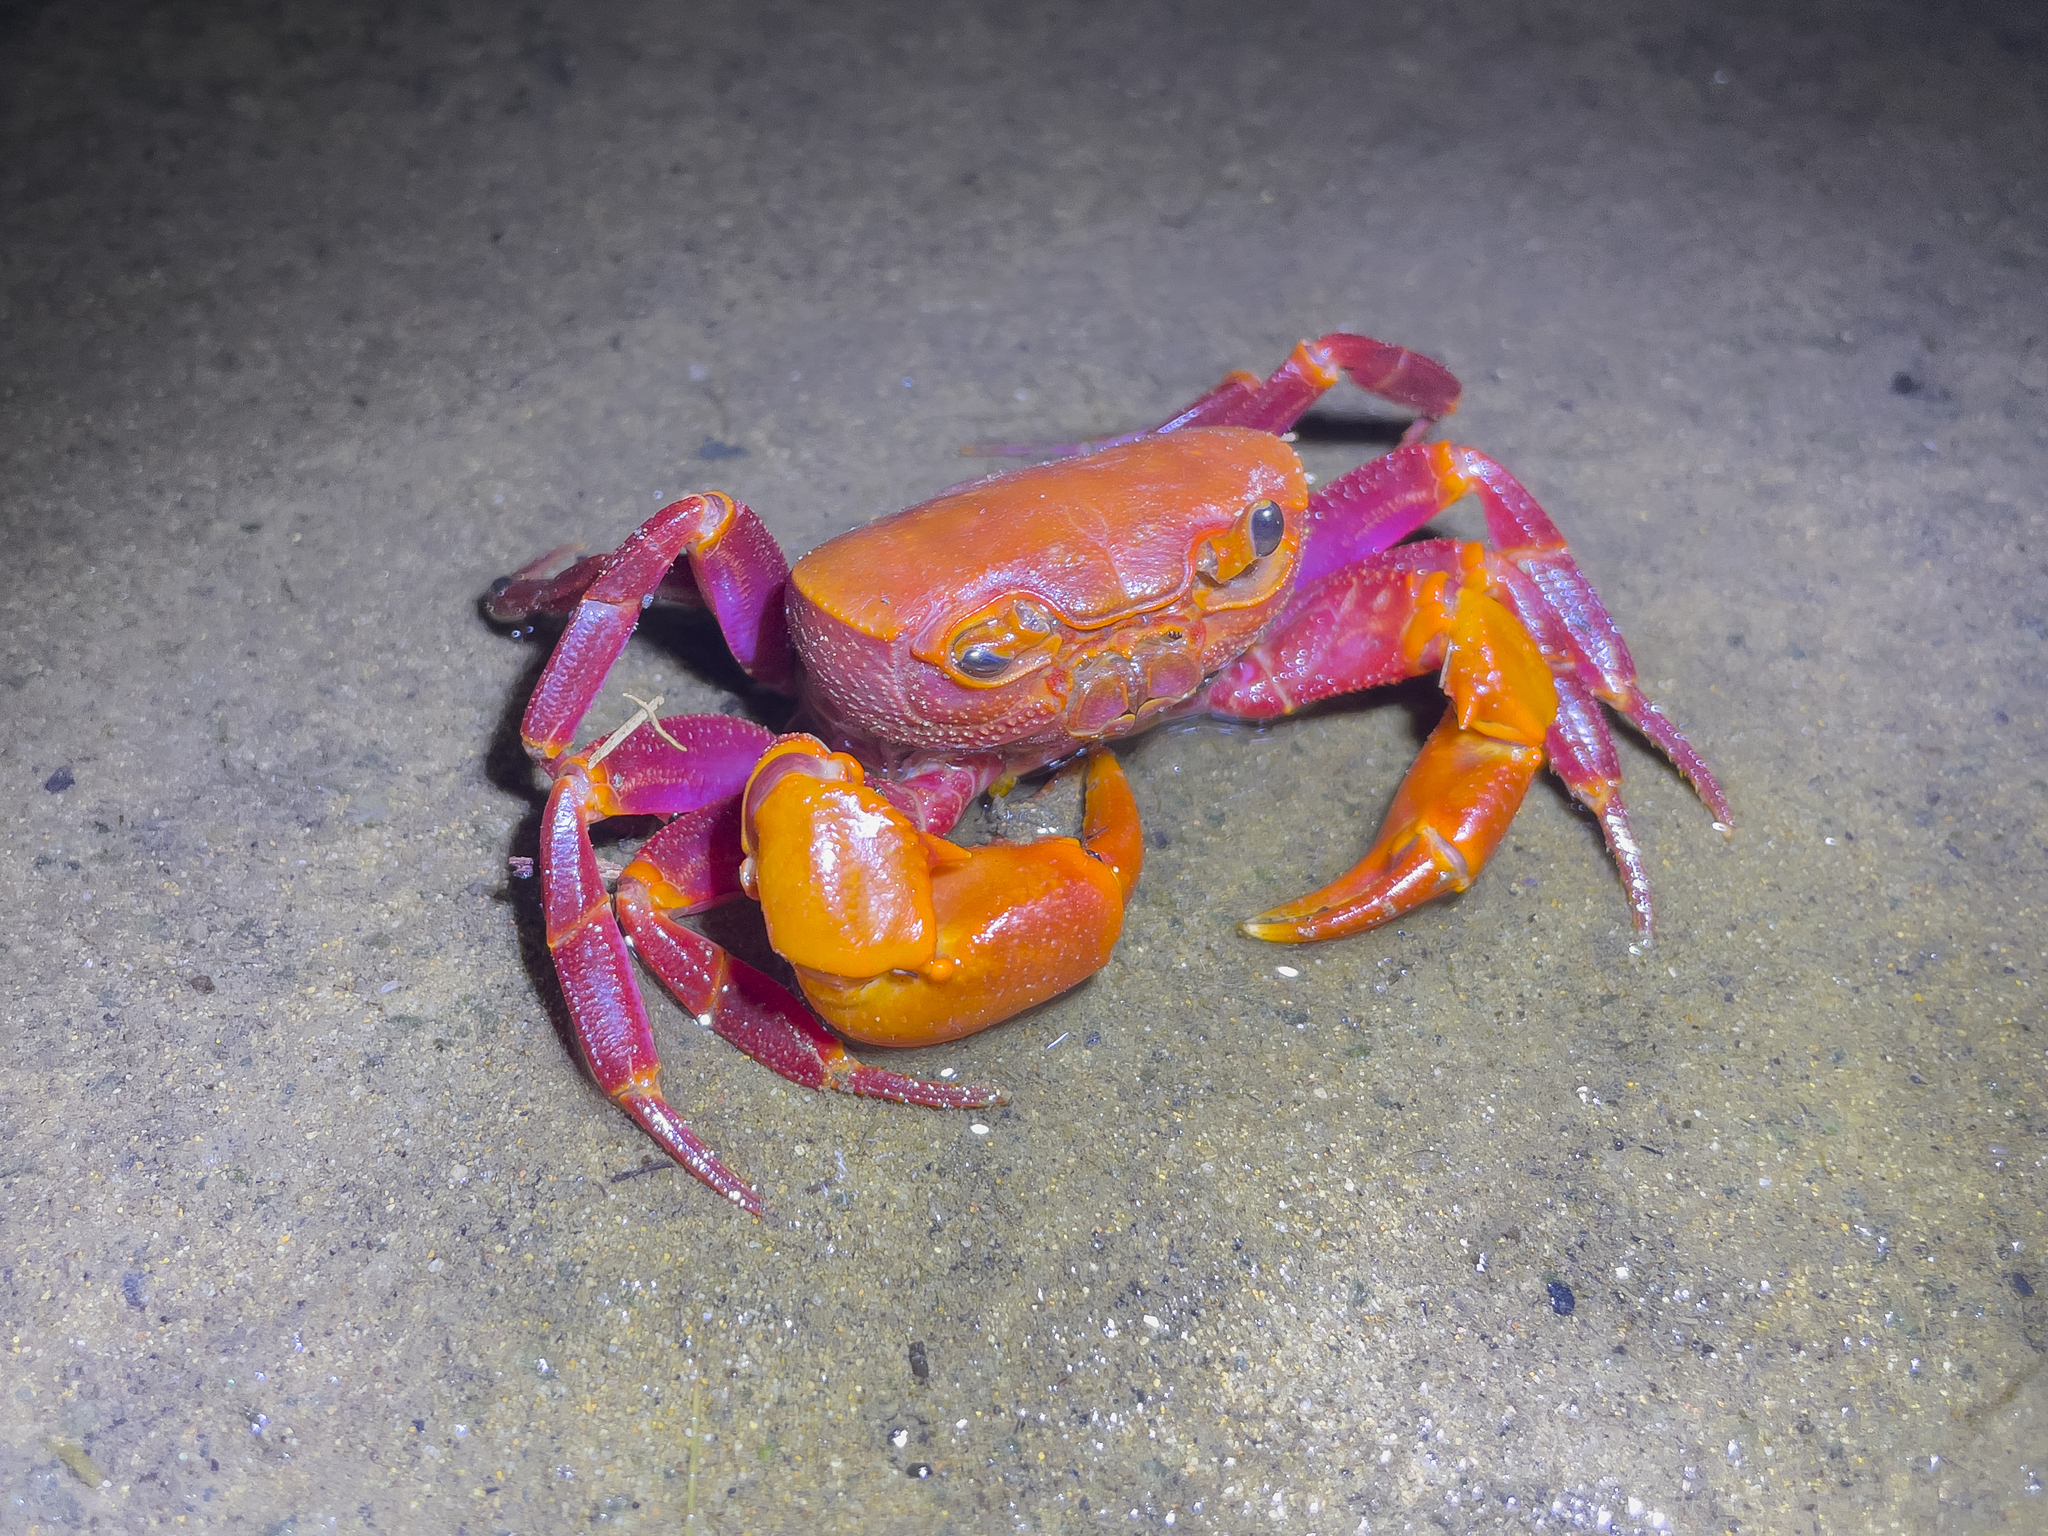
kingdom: Animalia
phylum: Arthropoda
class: Malacostraca
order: Decapoda
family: Potamidae
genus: Nanhaipotamon
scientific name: Nanhaipotamon hongkongense
